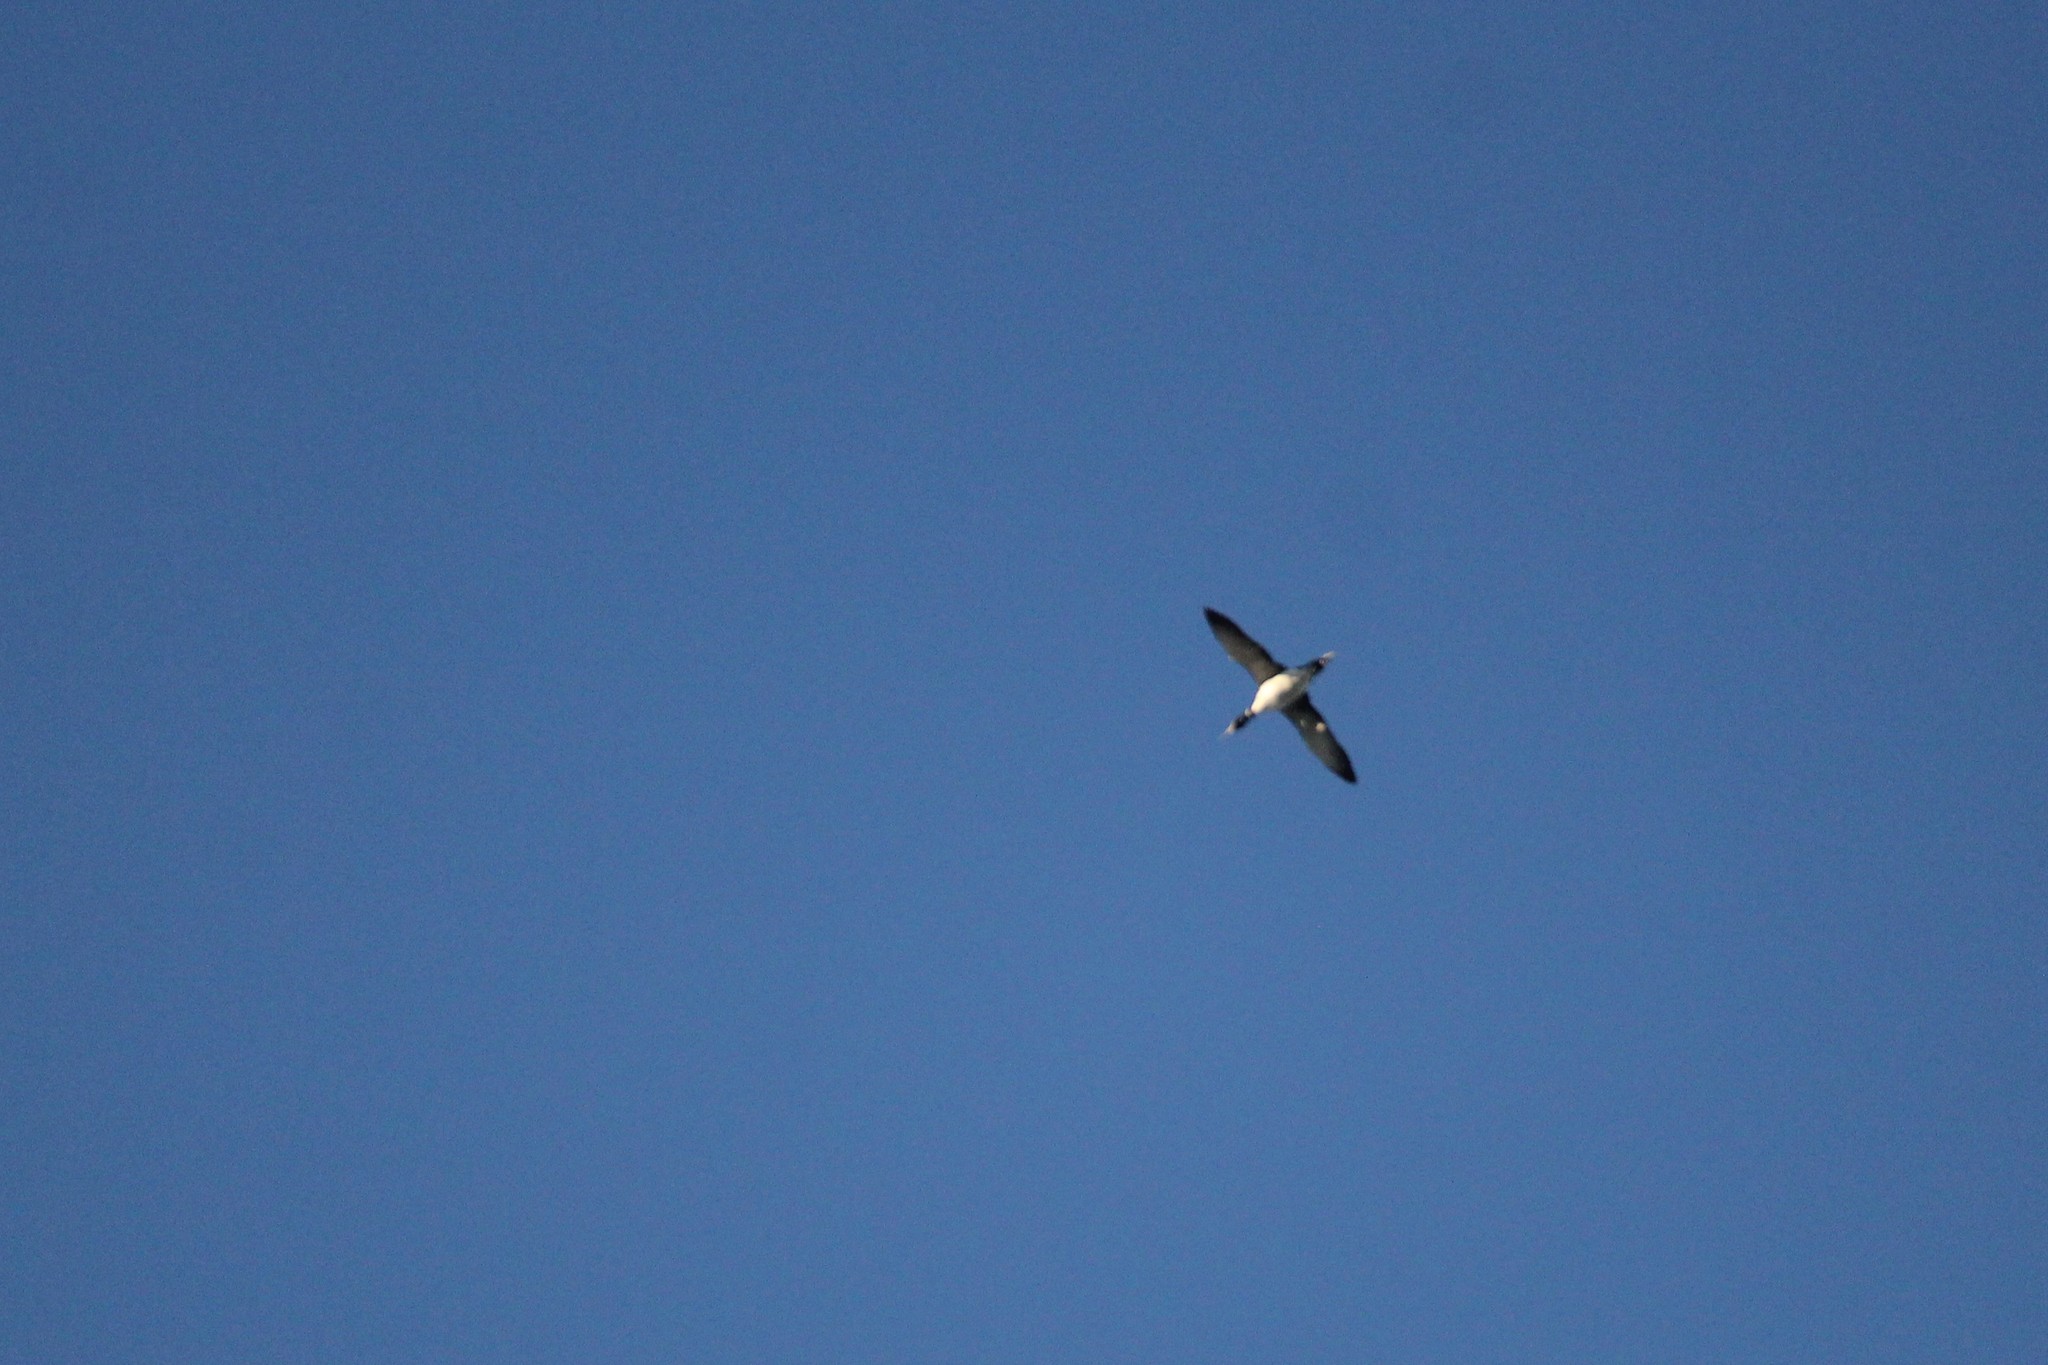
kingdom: Animalia
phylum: Chordata
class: Aves
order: Gaviiformes
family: Gaviidae
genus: Gavia
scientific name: Gavia immer
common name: Common loon
